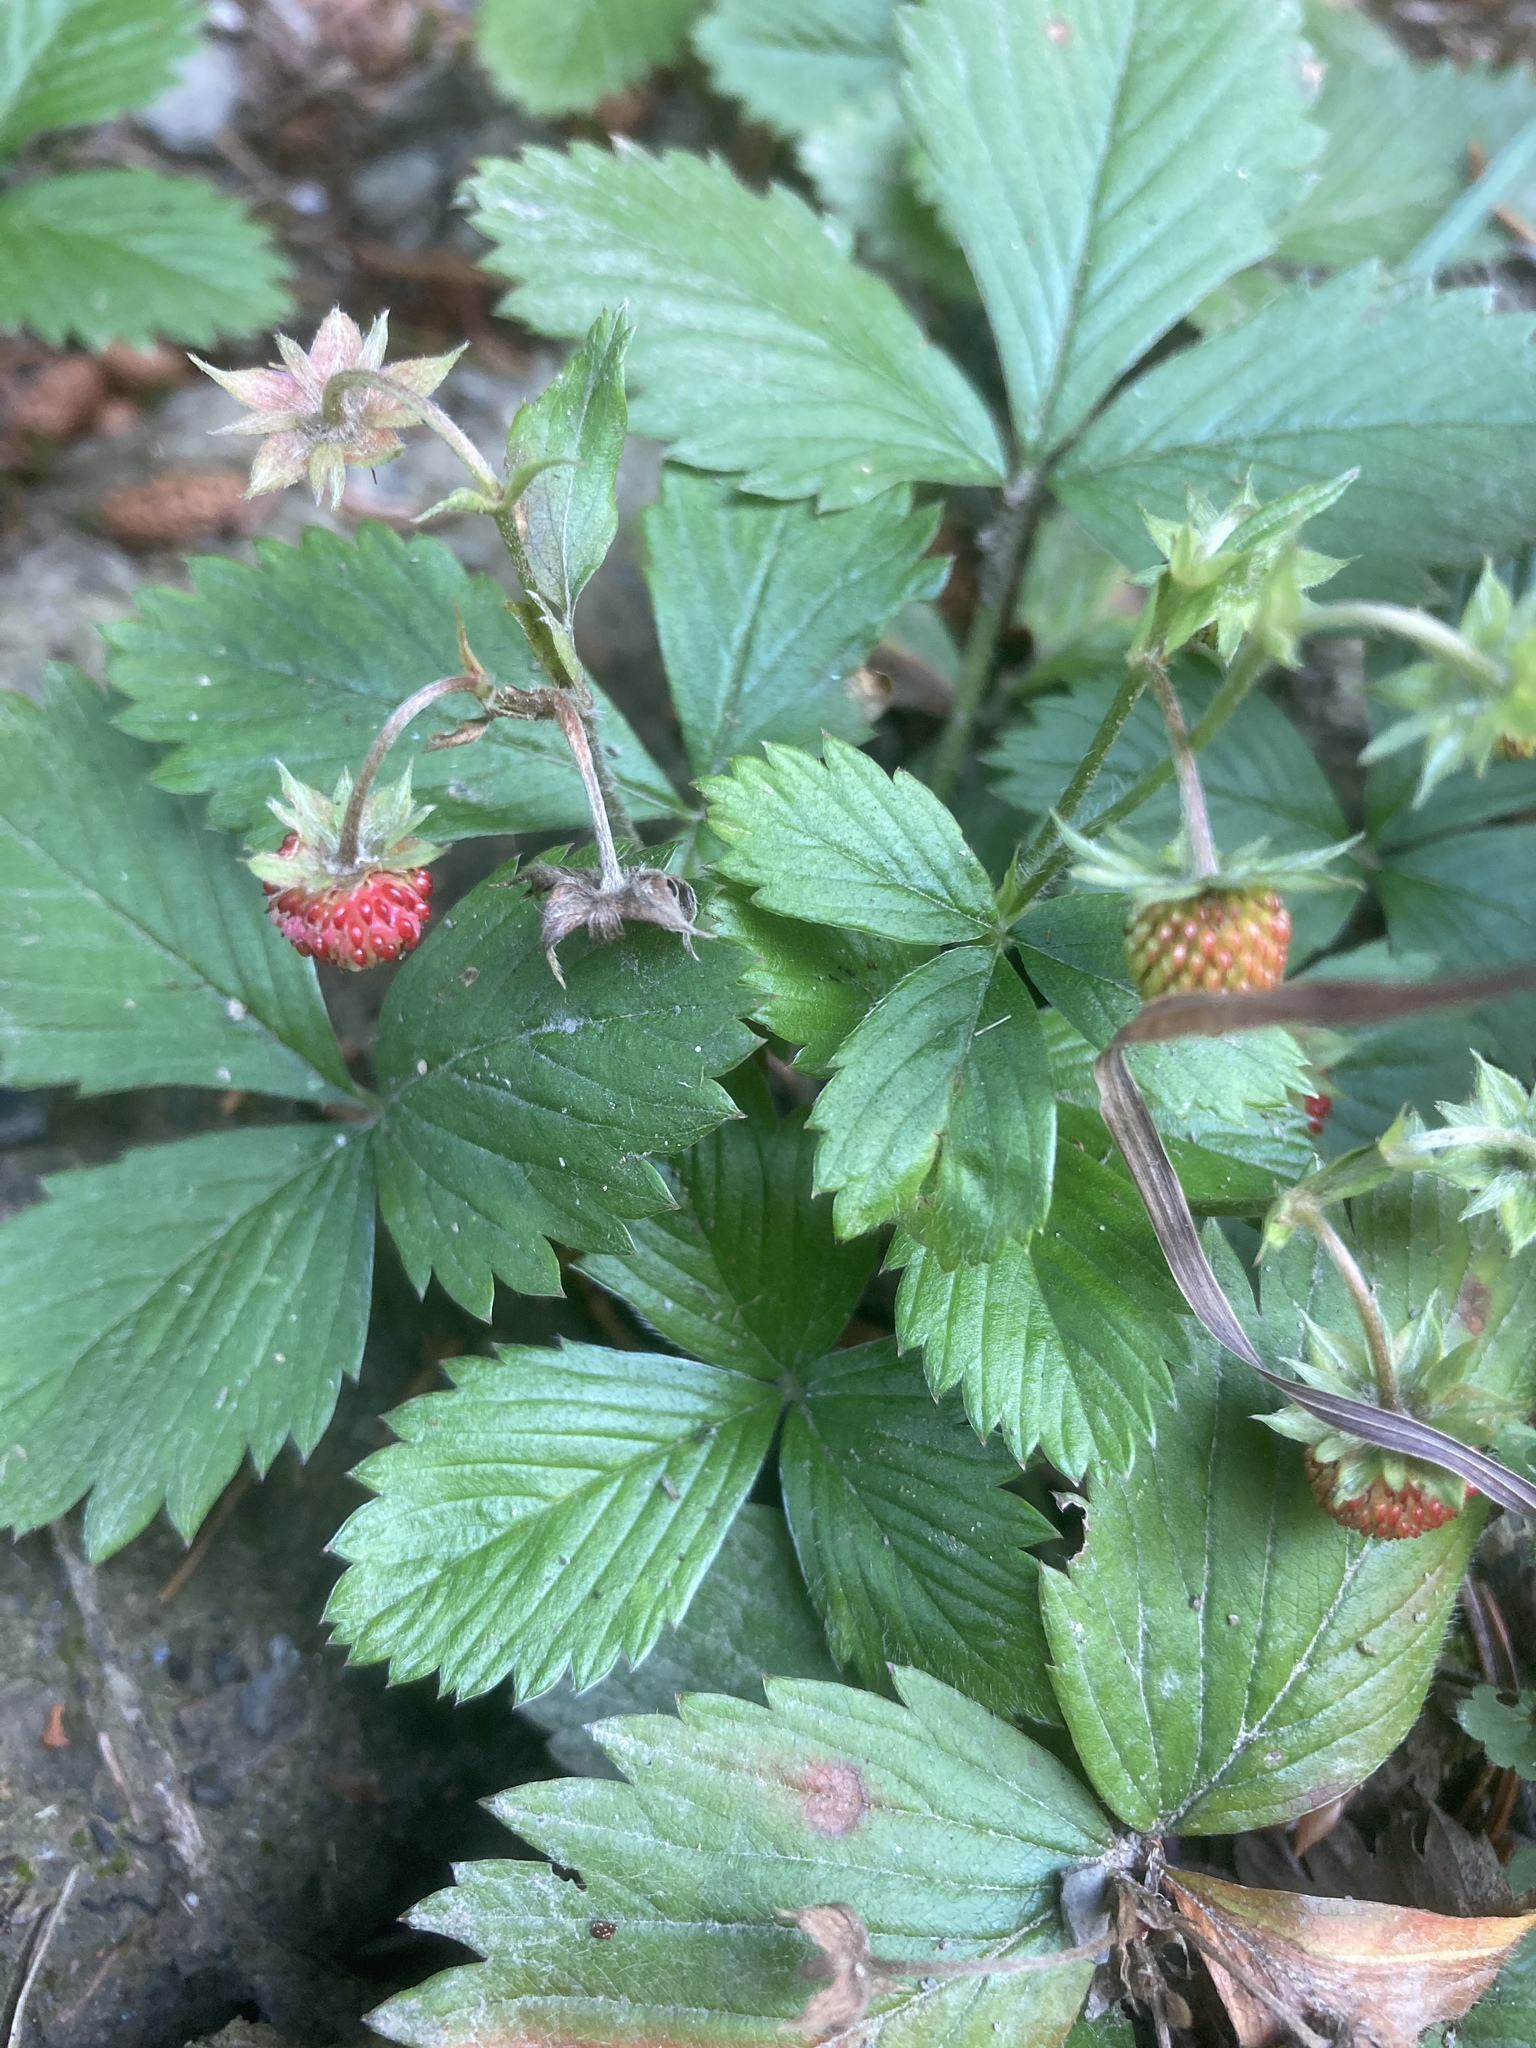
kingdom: Plantae
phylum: Tracheophyta
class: Magnoliopsida
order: Rosales
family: Rosaceae
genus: Fragaria
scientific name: Fragaria vesca
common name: Wild strawberry
